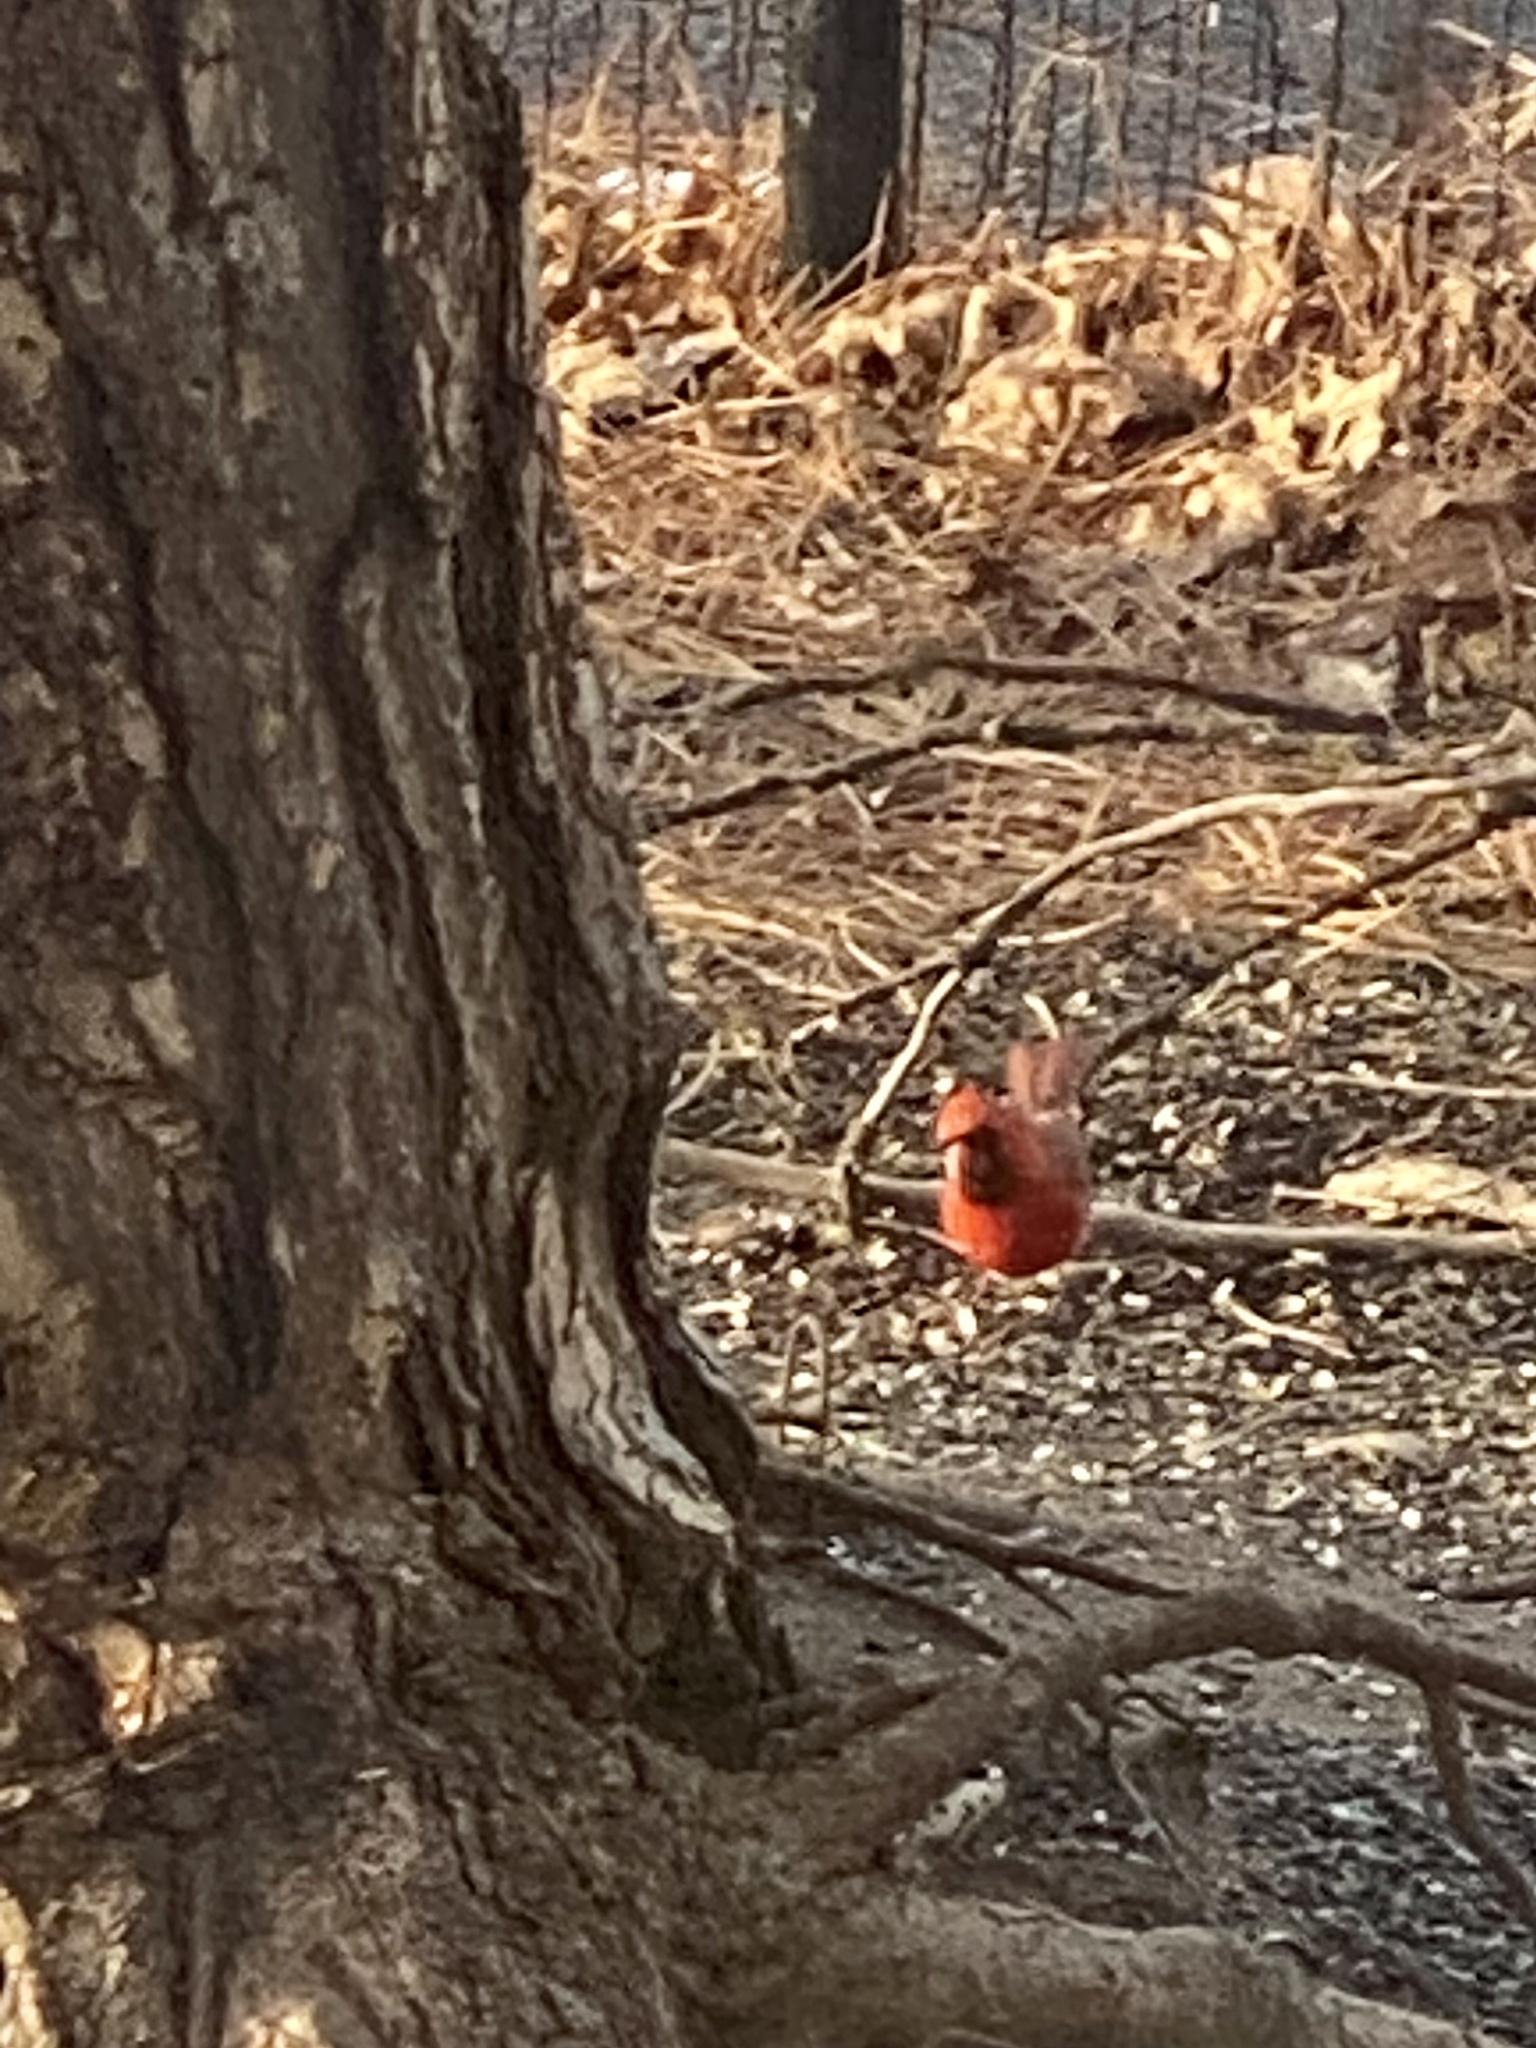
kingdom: Animalia
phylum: Chordata
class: Aves
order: Passeriformes
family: Cardinalidae
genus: Cardinalis
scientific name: Cardinalis cardinalis
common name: Northern cardinal
